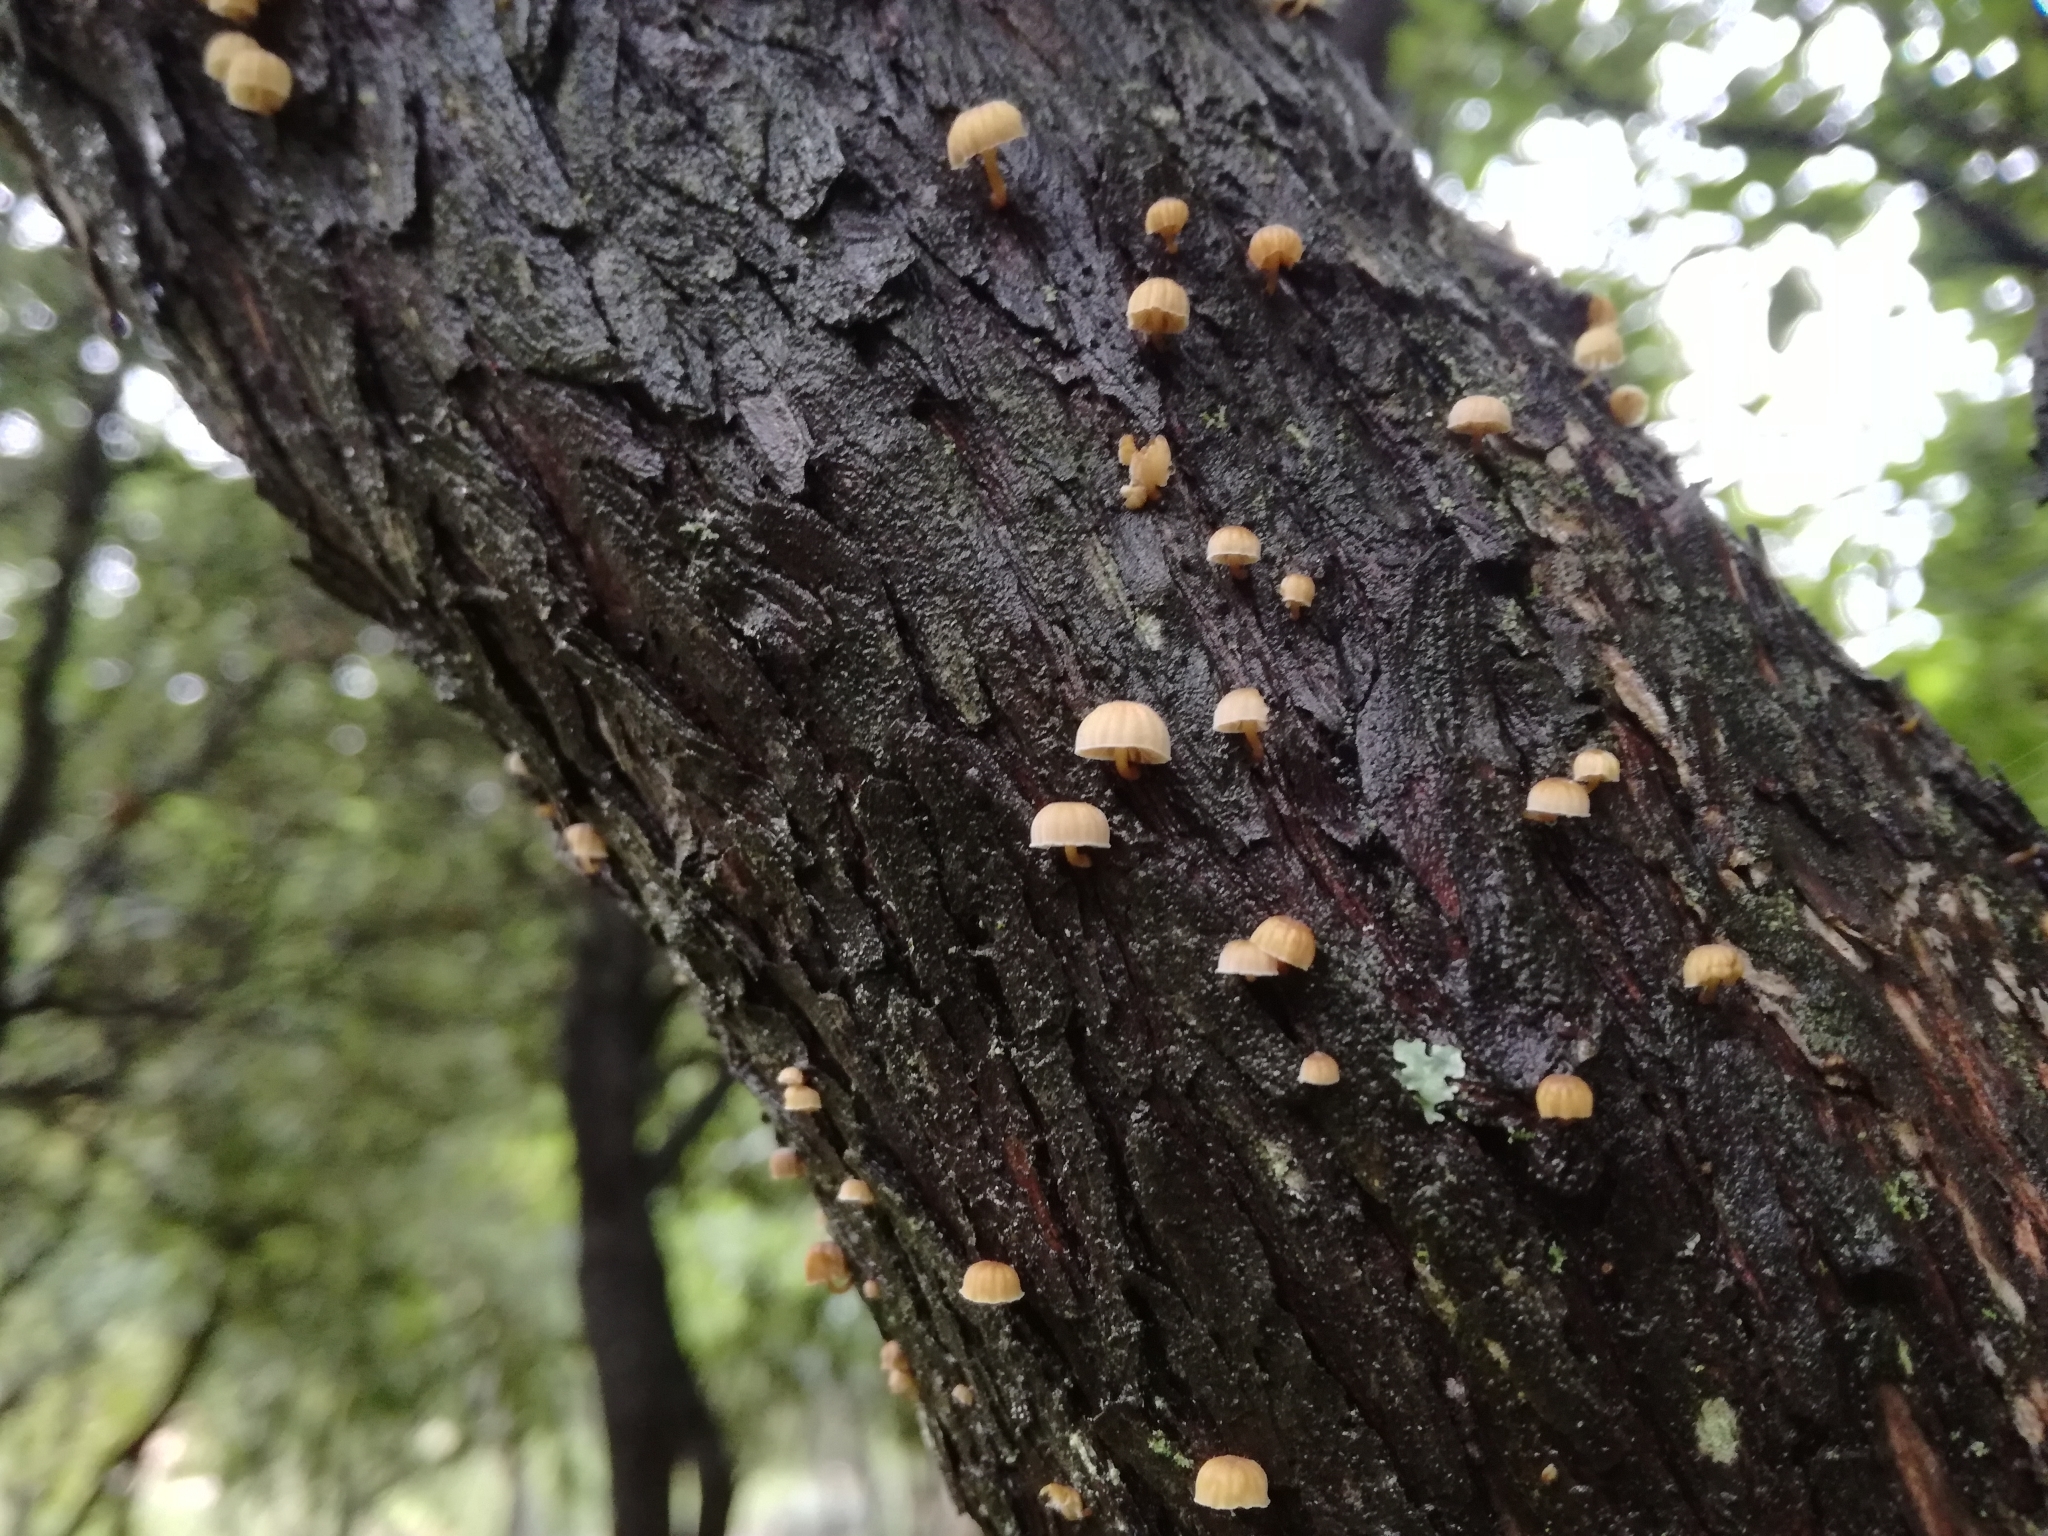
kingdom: Fungi
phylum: Basidiomycota
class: Agaricomycetes
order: Agaricales
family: Mycenaceae
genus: Mycena
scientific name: Mycena juniperina
